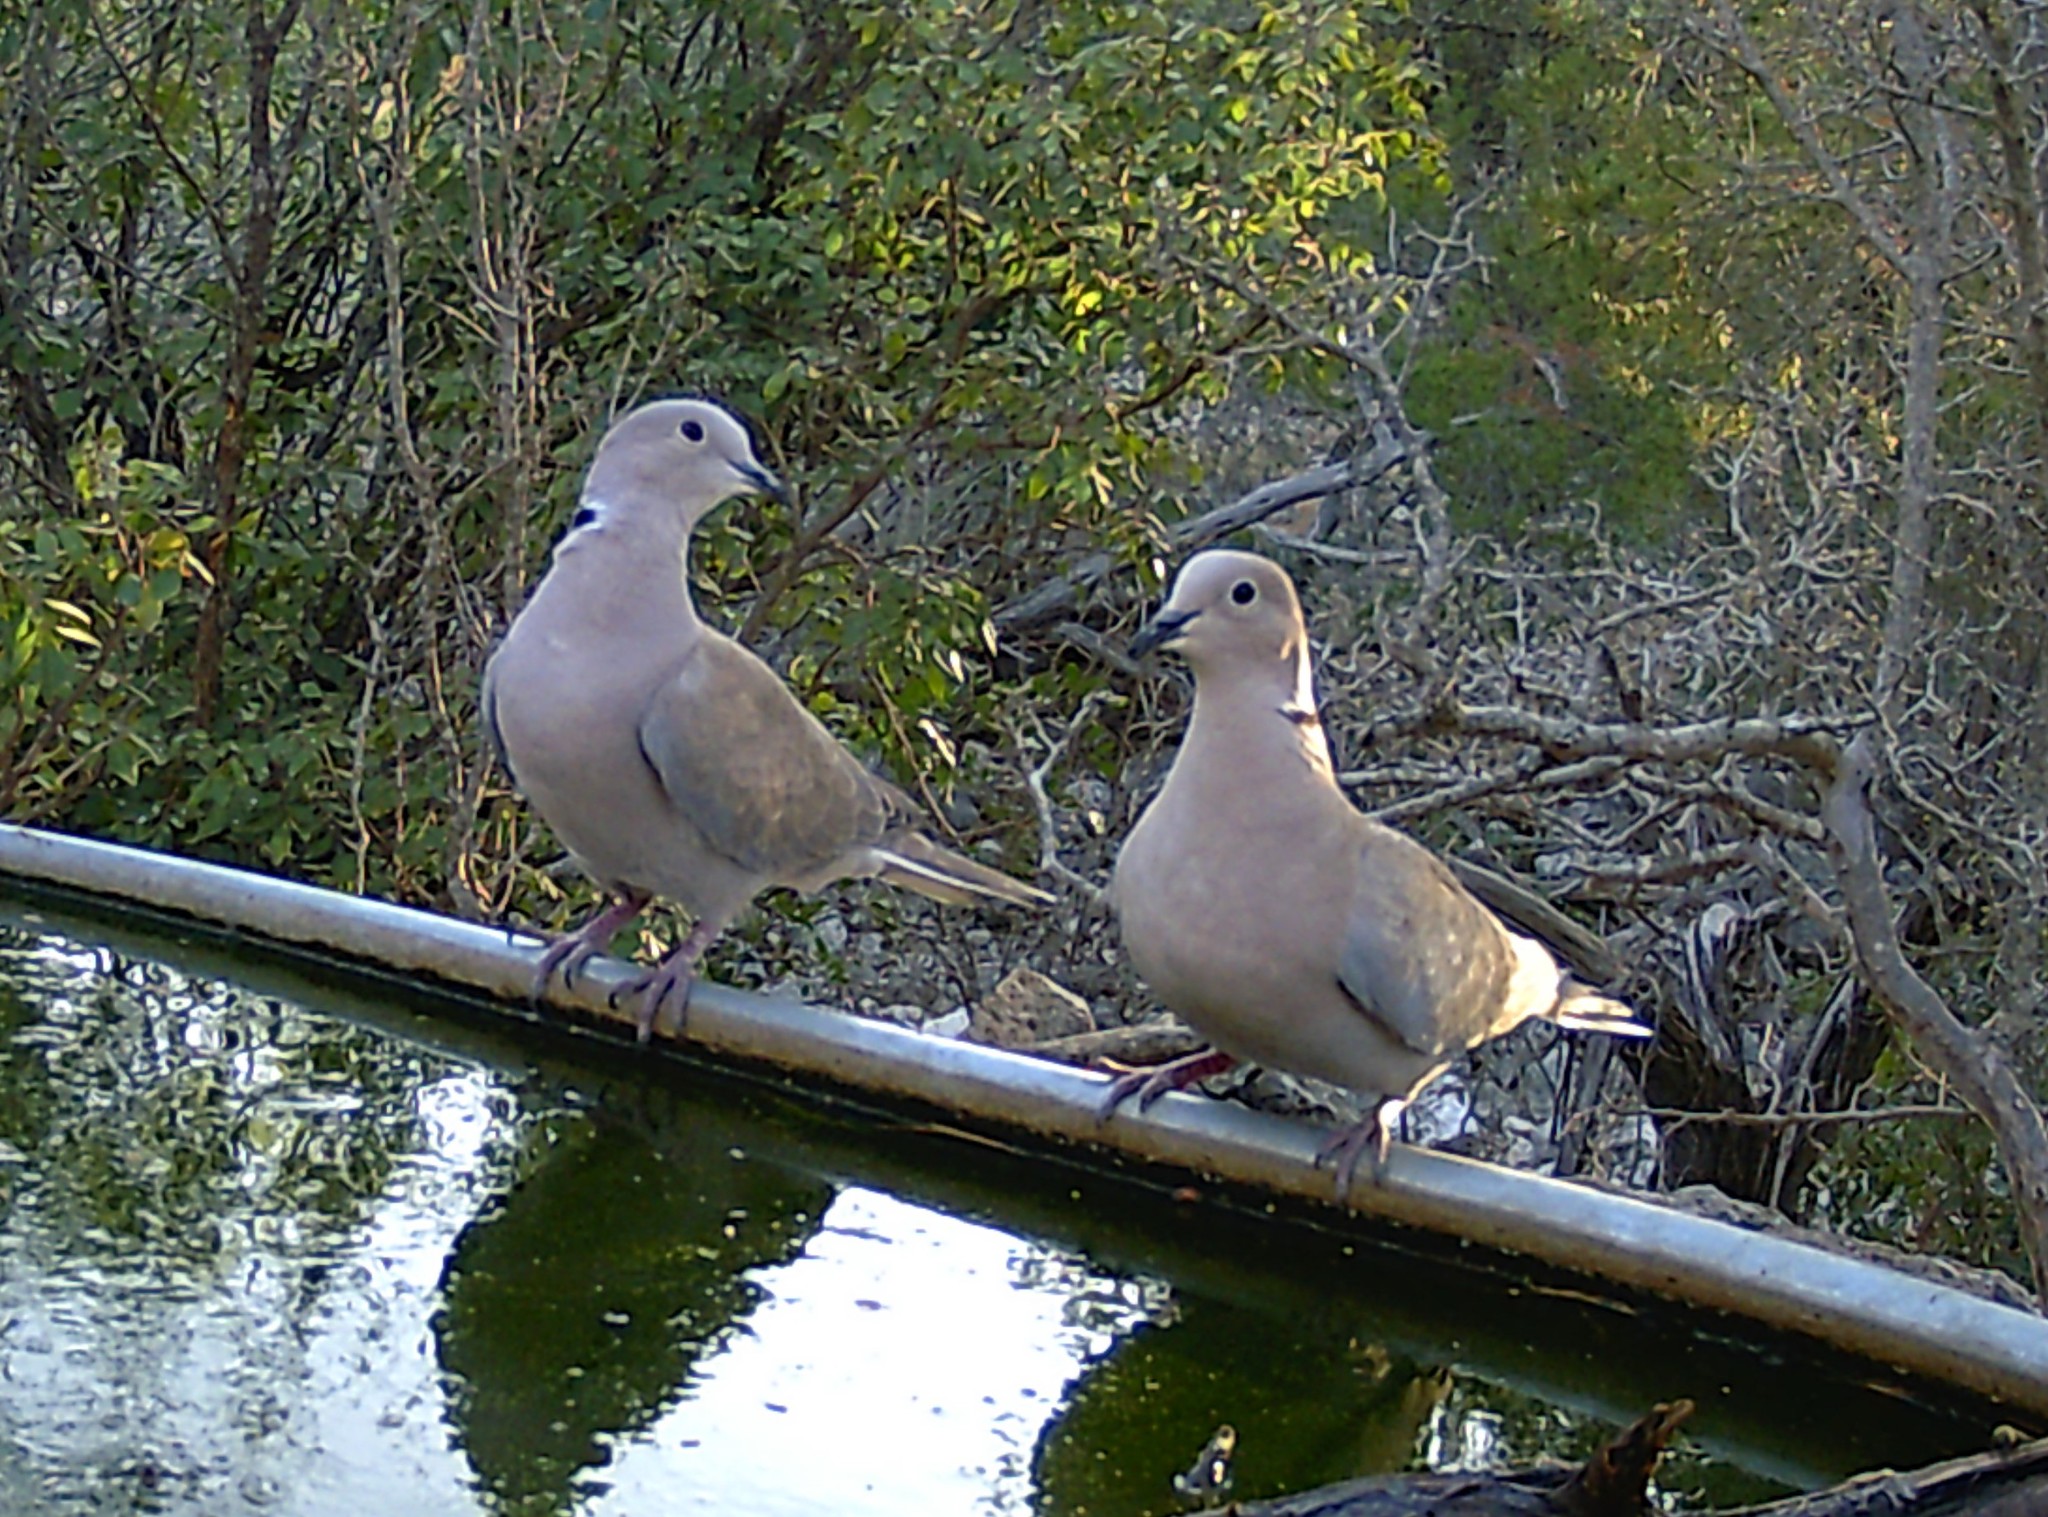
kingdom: Animalia
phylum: Chordata
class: Aves
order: Columbiformes
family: Columbidae
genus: Streptopelia
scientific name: Streptopelia decaocto
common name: Eurasian collared dove
